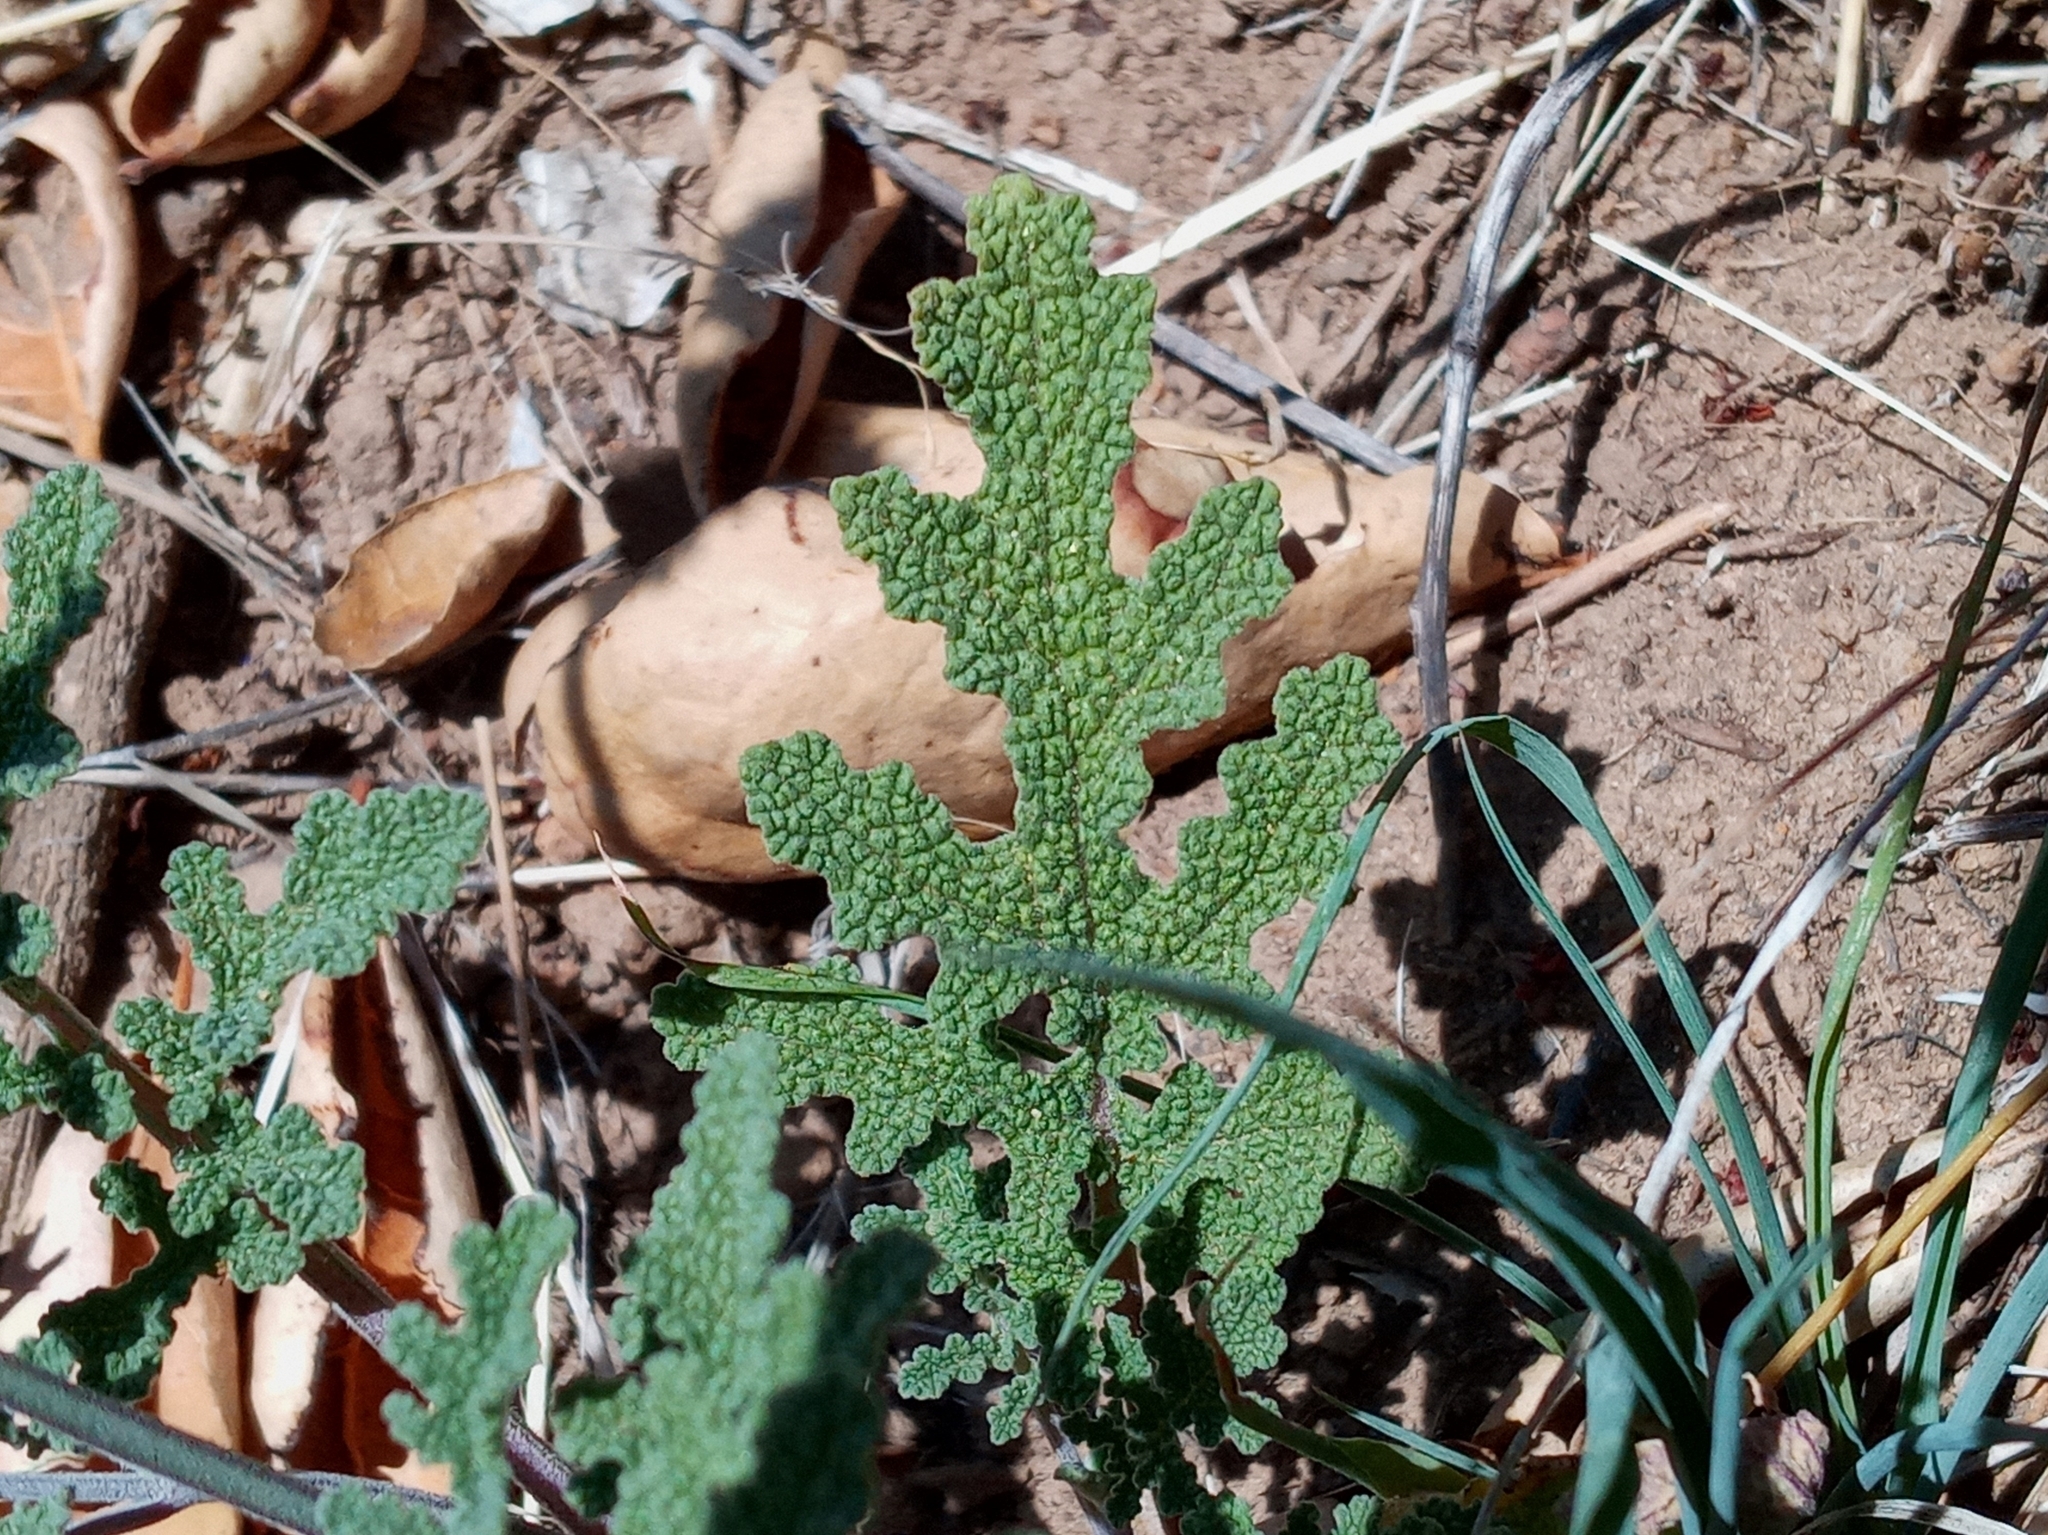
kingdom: Plantae
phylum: Tracheophyta
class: Magnoliopsida
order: Lamiales
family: Lamiaceae
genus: Salvia
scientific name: Salvia columbariae
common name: Chia
